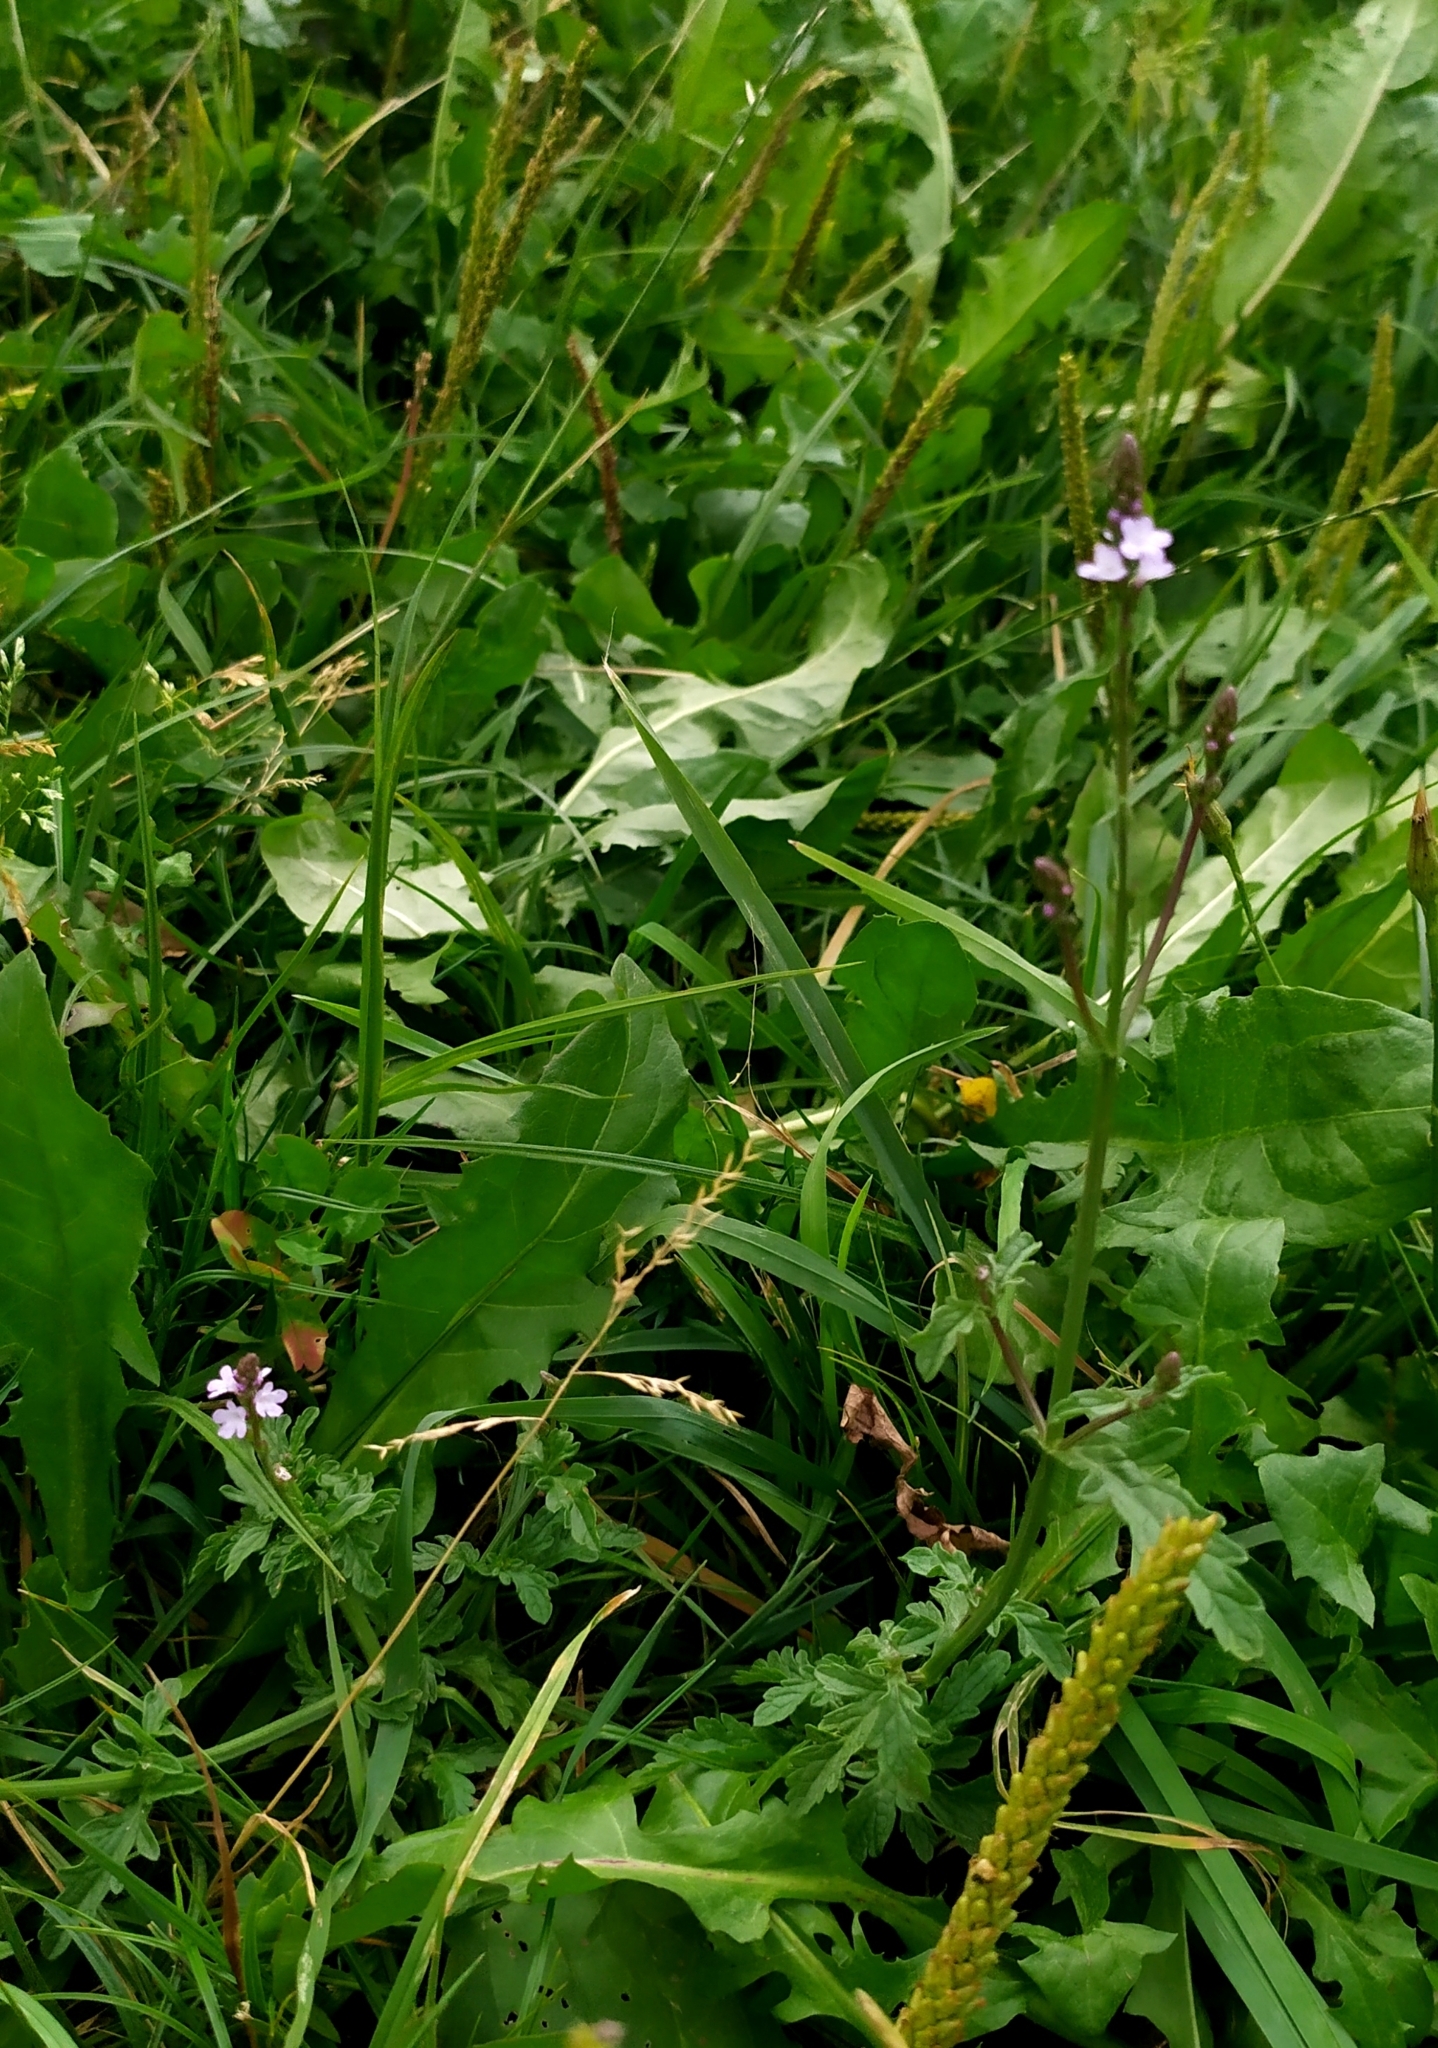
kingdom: Plantae
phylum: Tracheophyta
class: Magnoliopsida
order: Lamiales
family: Verbenaceae
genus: Verbena
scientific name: Verbena officinalis
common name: Vervain
